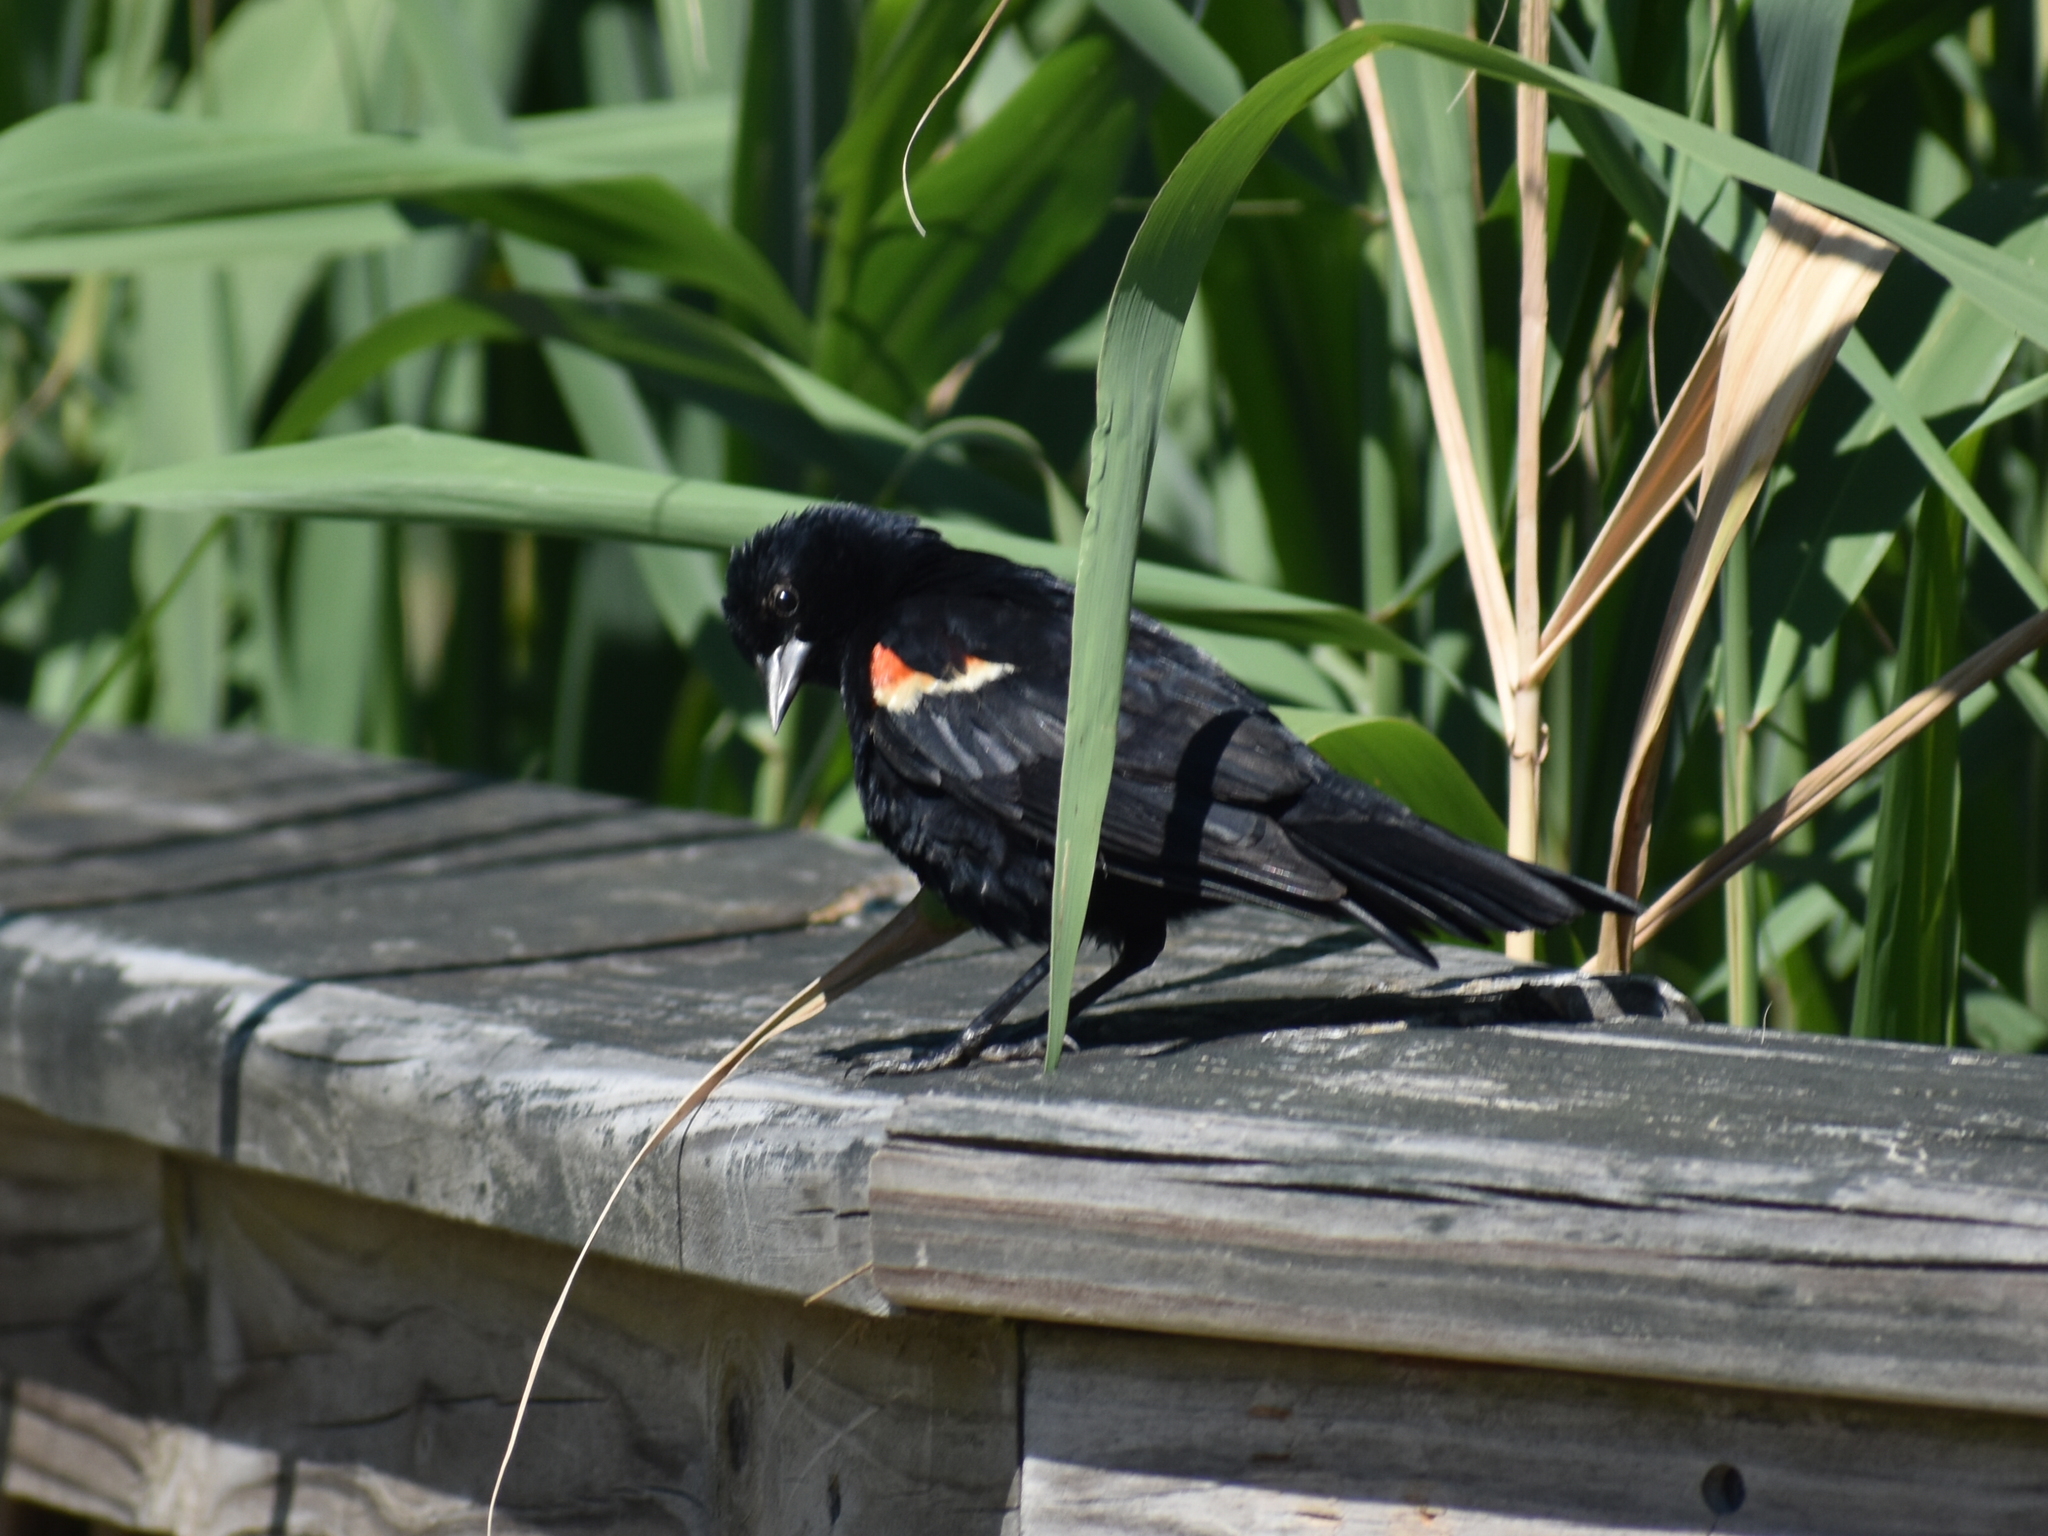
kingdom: Animalia
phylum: Chordata
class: Aves
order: Passeriformes
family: Icteridae
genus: Agelaius
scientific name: Agelaius phoeniceus
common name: Red-winged blackbird
